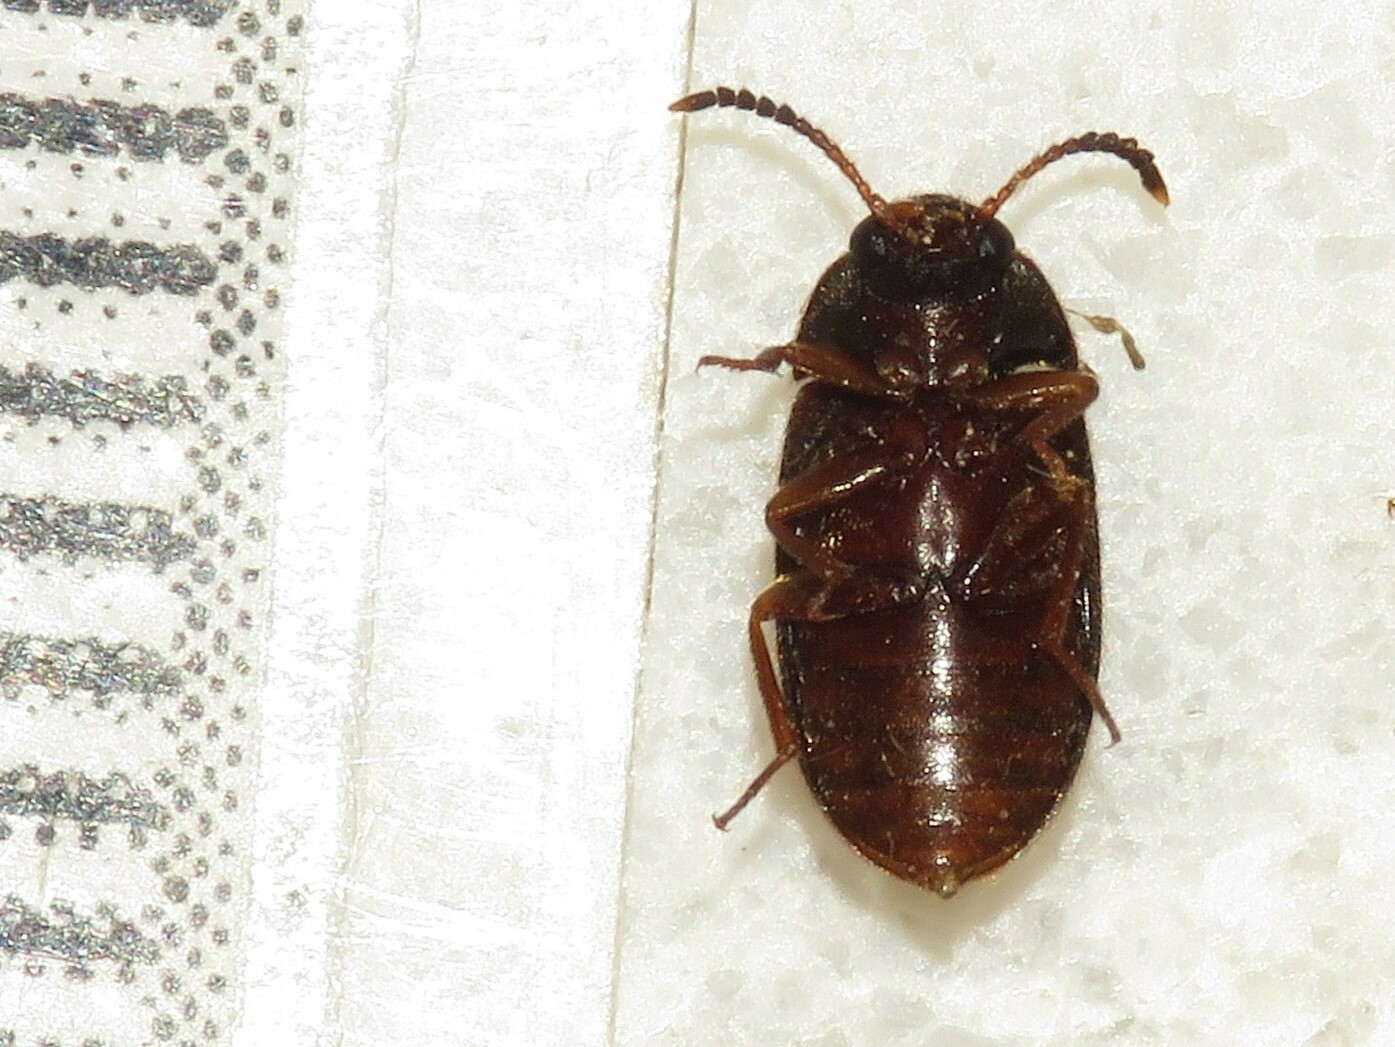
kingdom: Animalia
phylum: Arthropoda
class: Insecta
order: Coleoptera
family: Mycetophagidae
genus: Mycetophagus
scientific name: Mycetophagus punctatus
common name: Hairy fungus beetle
